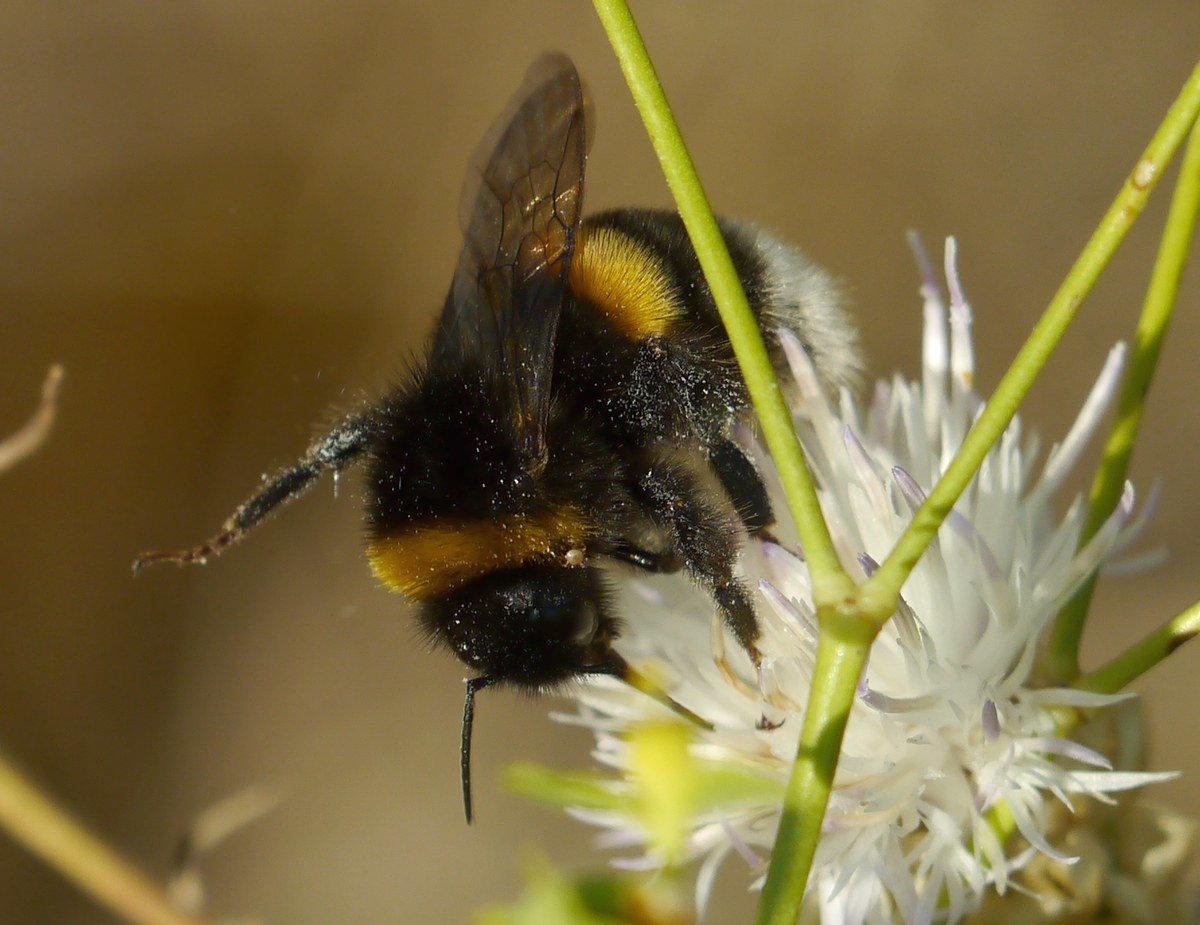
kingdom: Animalia
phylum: Arthropoda
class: Insecta
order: Hymenoptera
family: Apidae
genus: Bombus
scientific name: Bombus
